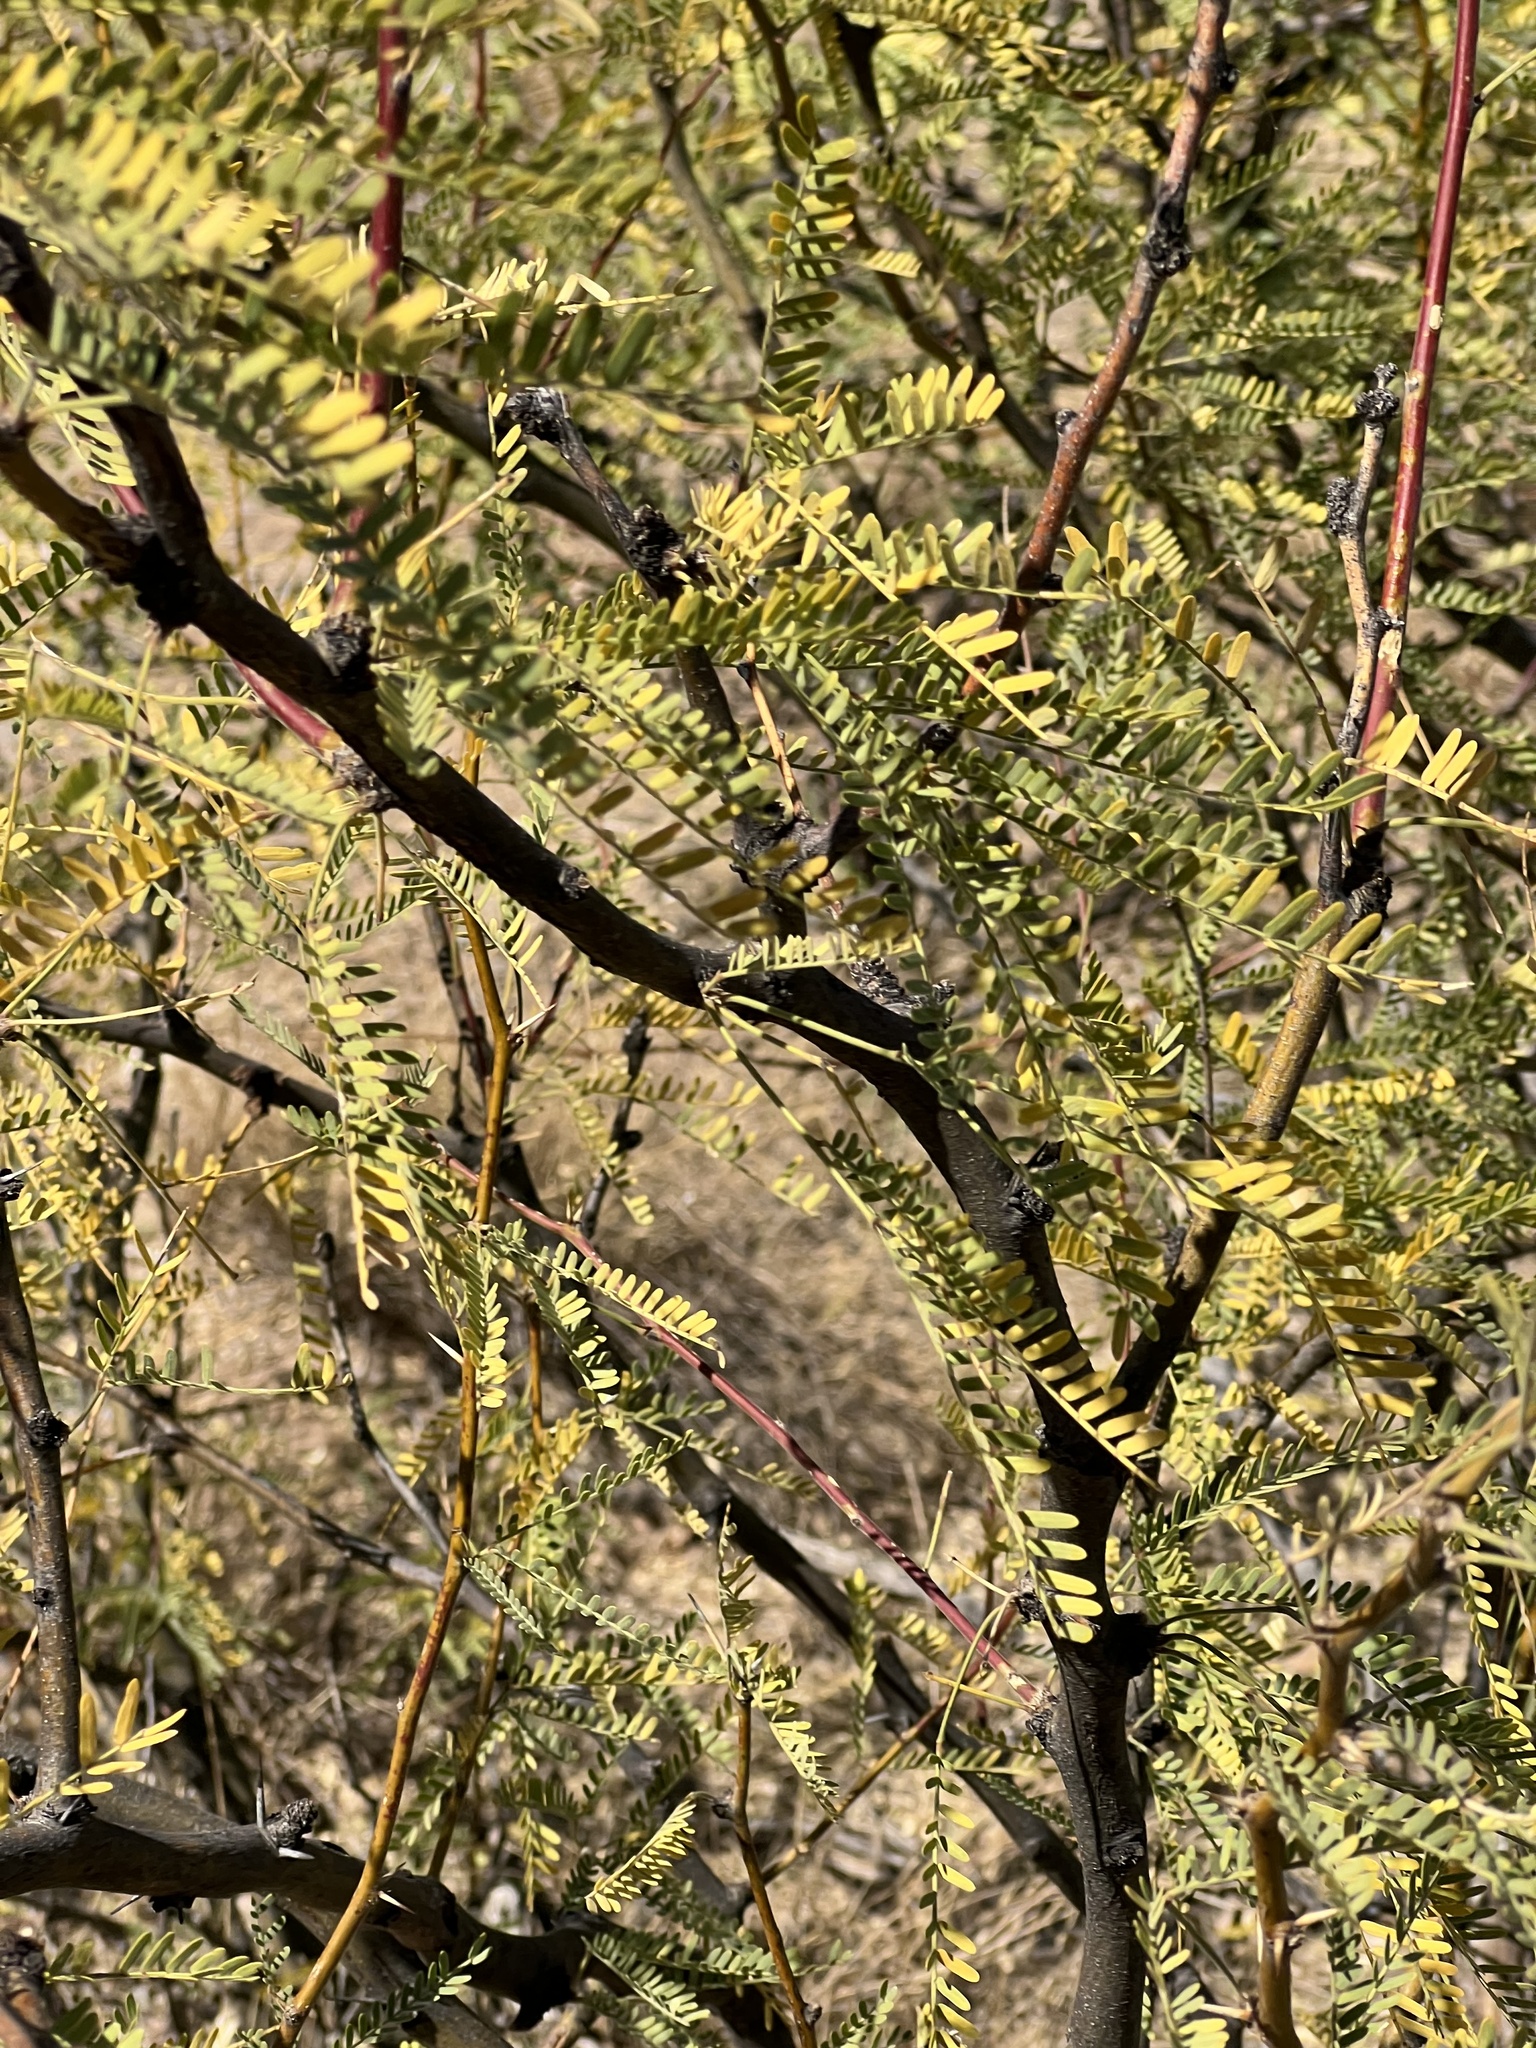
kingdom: Plantae
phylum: Tracheophyta
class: Magnoliopsida
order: Fabales
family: Fabaceae
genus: Prosopis
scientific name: Prosopis velutina
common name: Velvet mesquite
